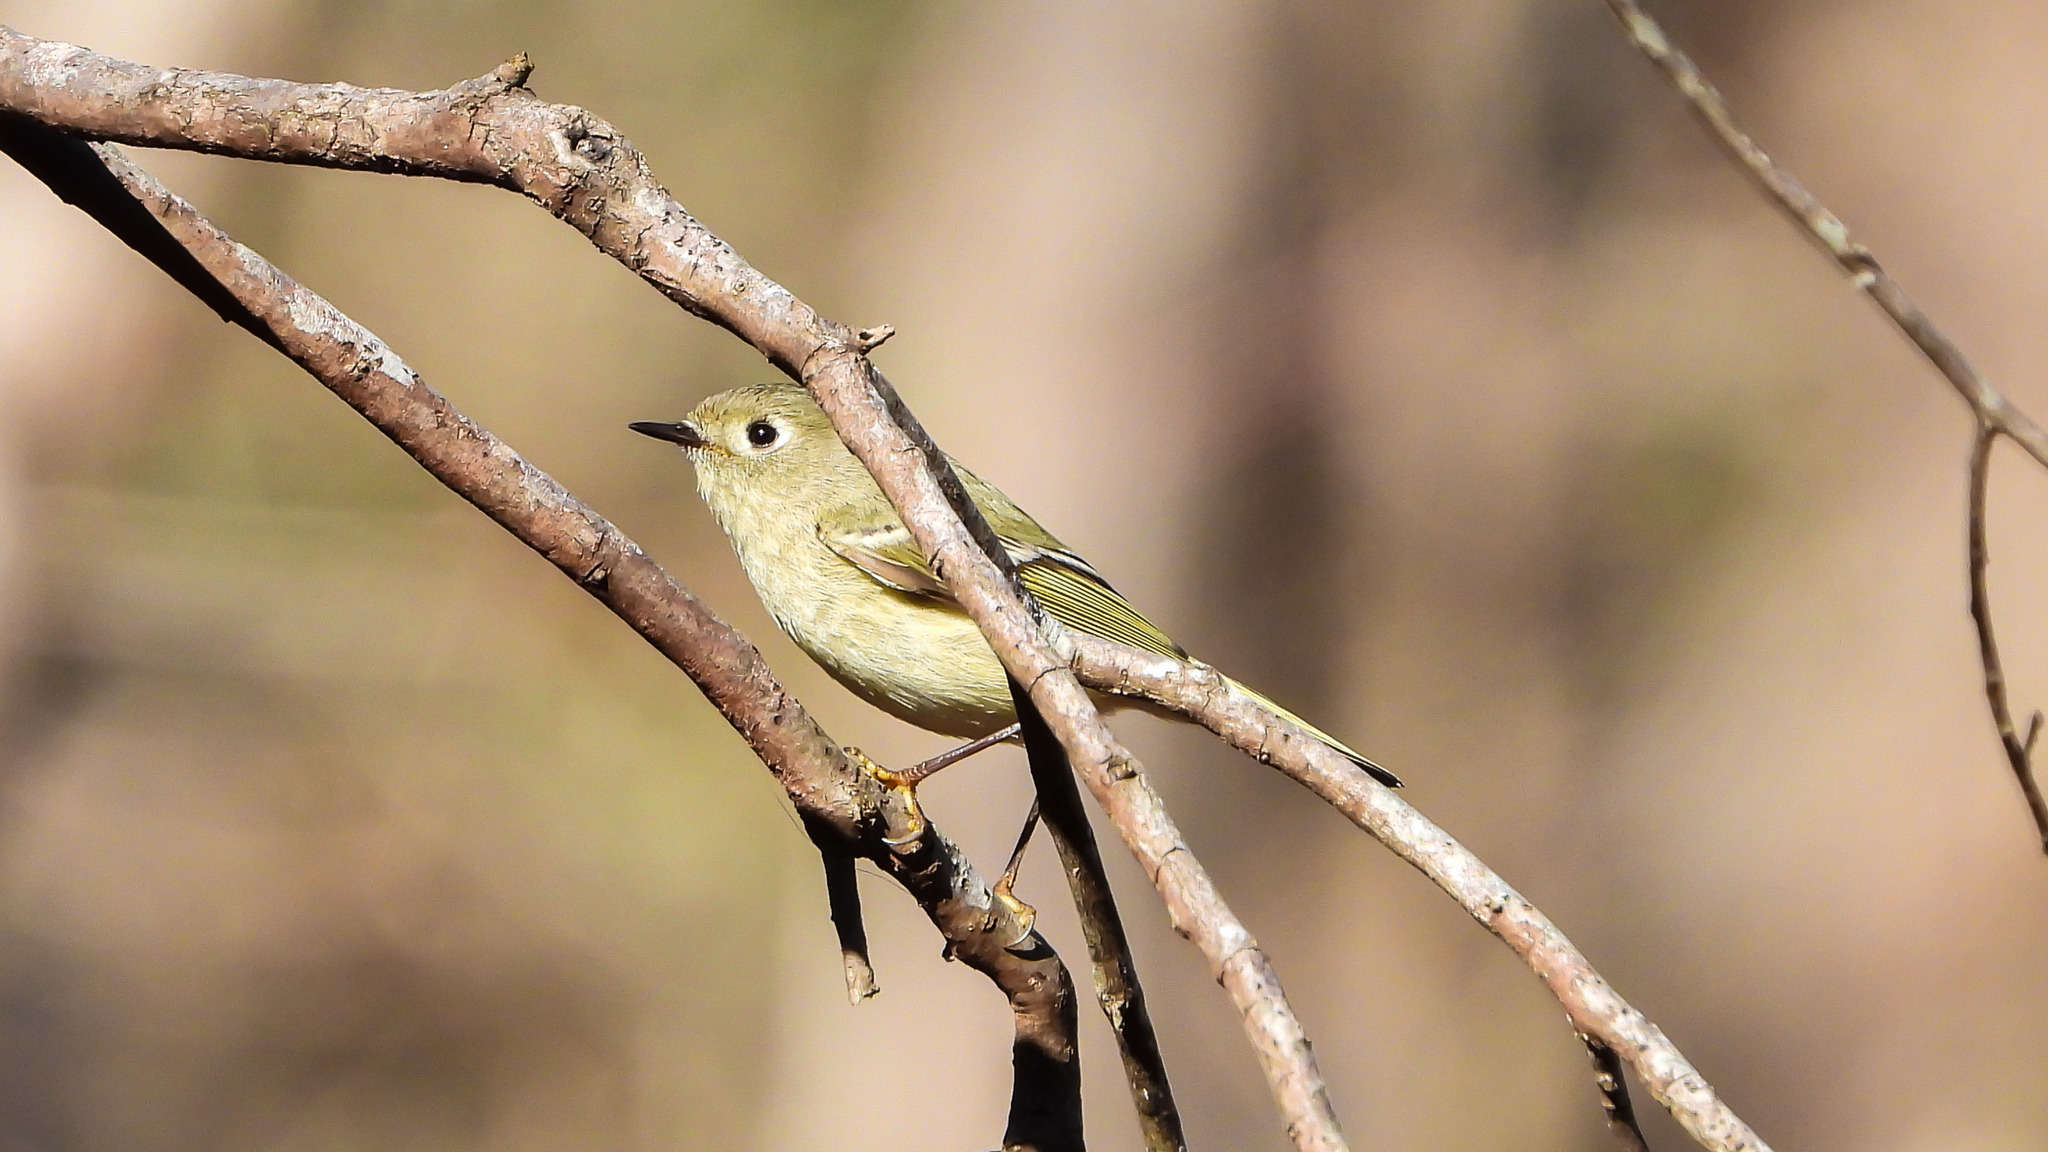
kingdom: Animalia
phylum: Chordata
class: Aves
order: Passeriformes
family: Regulidae
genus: Regulus
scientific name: Regulus calendula
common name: Ruby-crowned kinglet
